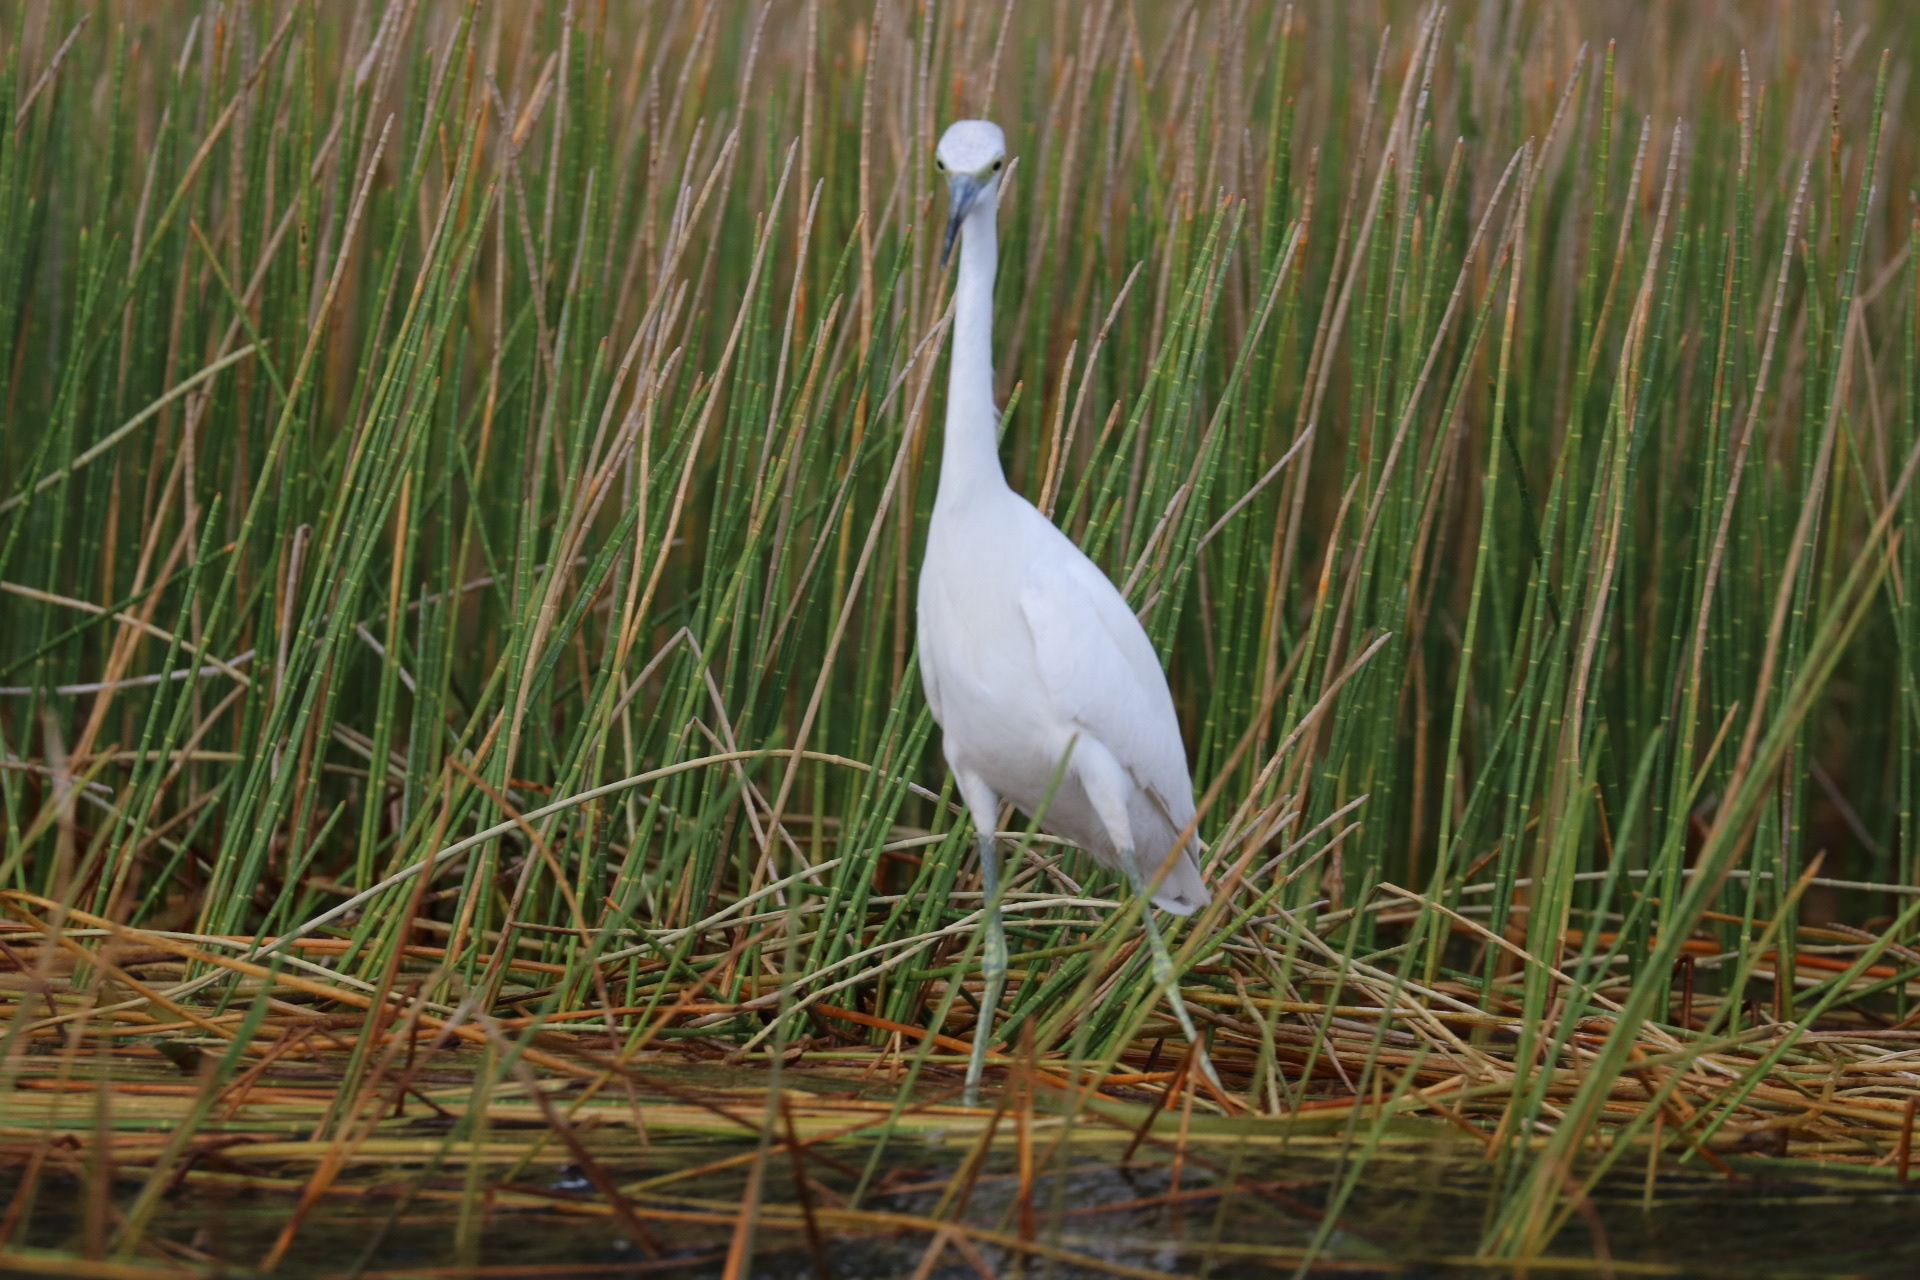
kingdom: Animalia
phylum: Chordata
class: Aves
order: Pelecaniformes
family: Ardeidae
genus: Egretta
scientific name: Egretta caerulea
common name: Little blue heron
